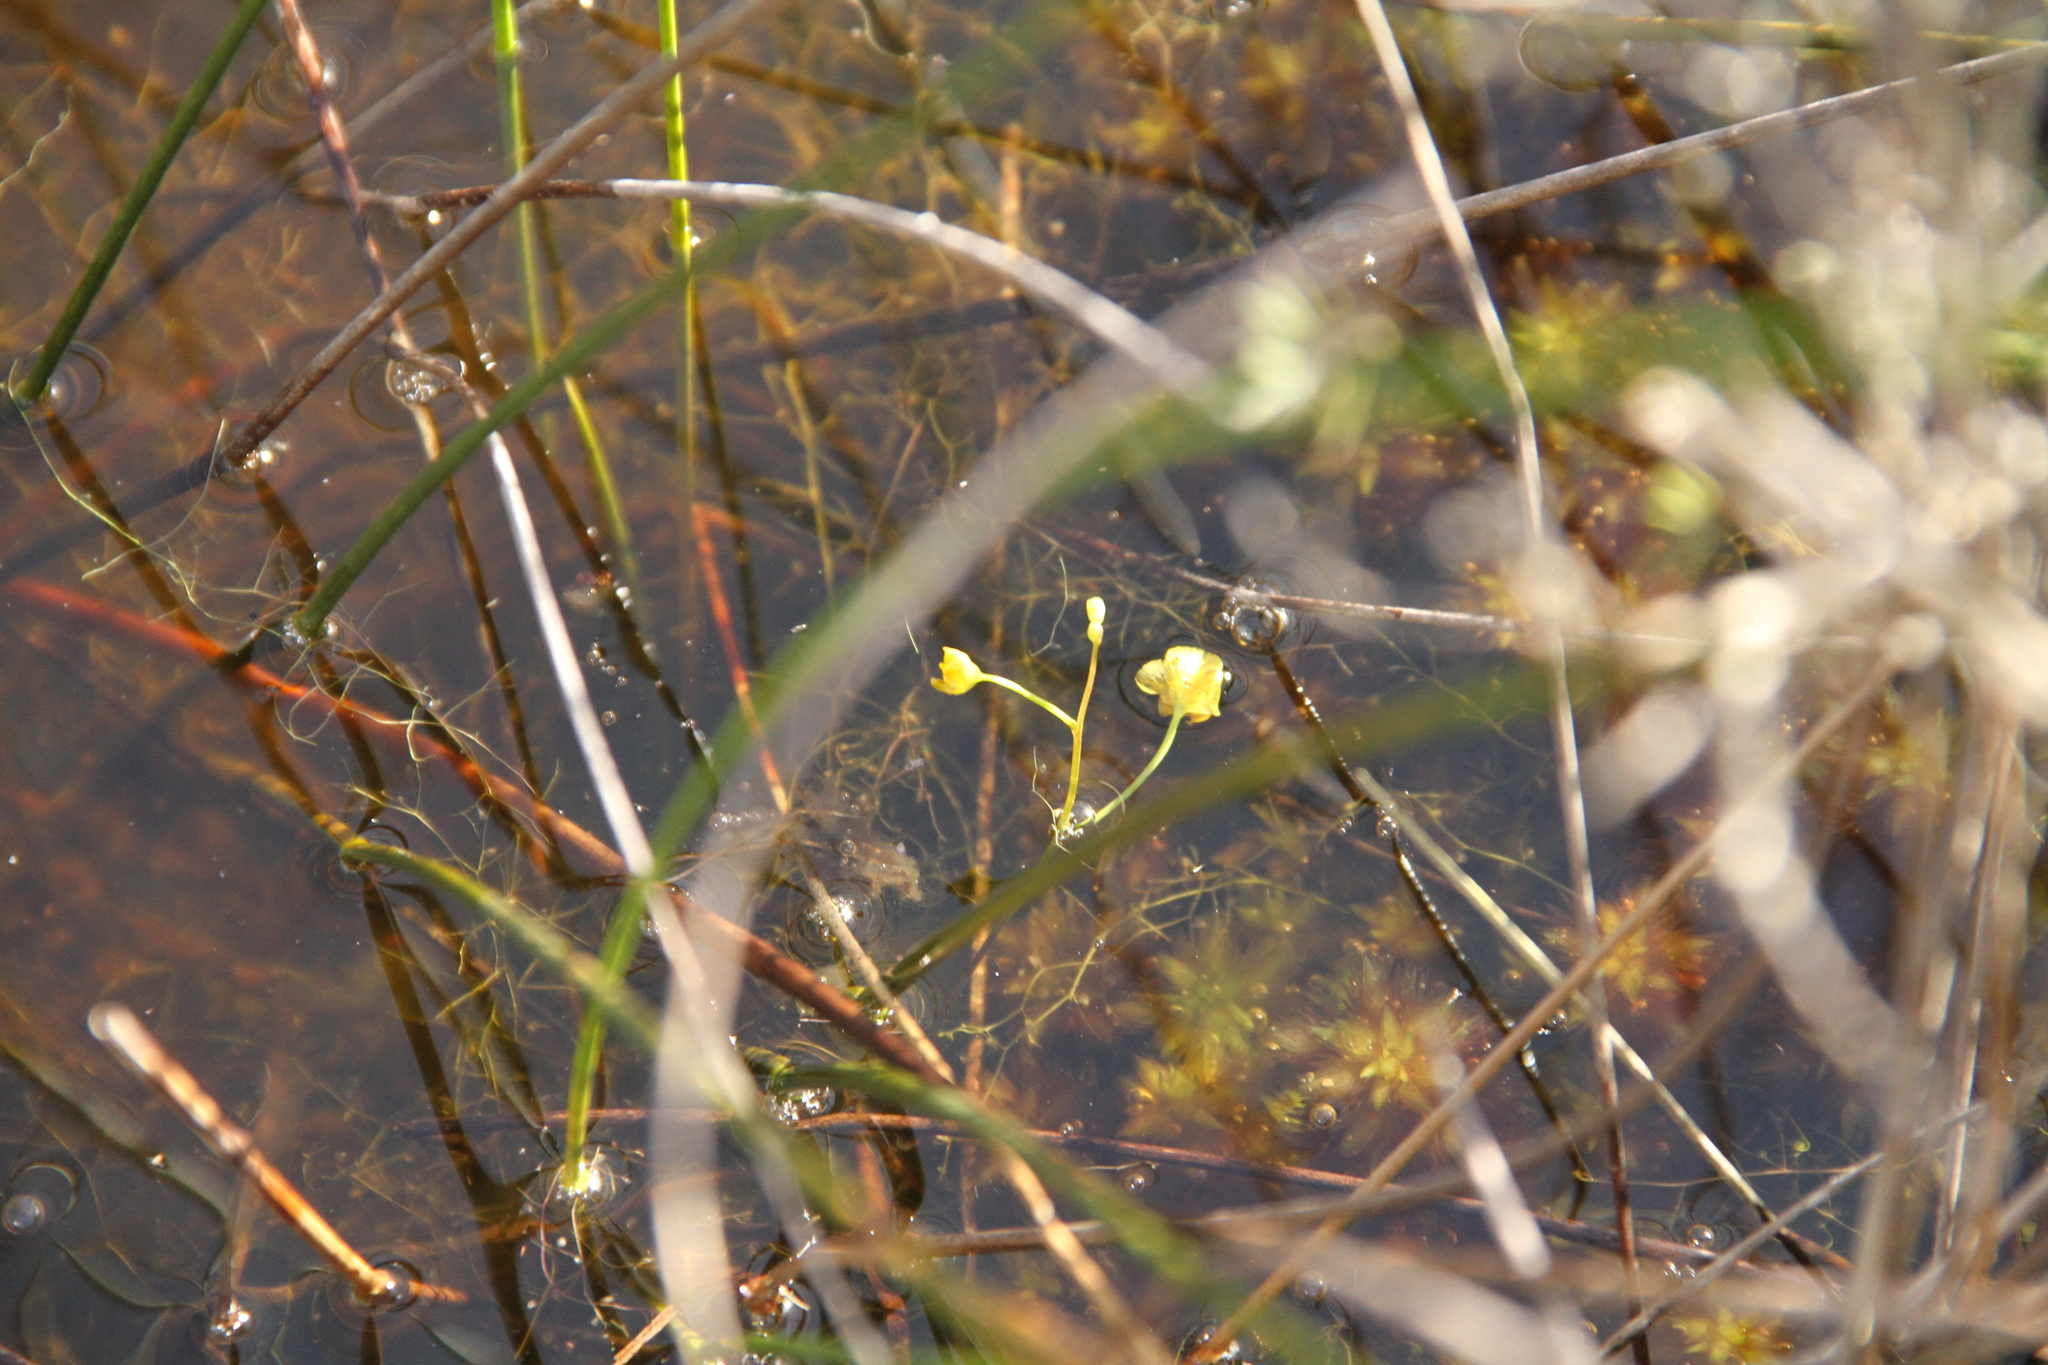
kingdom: Plantae
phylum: Tracheophyta
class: Magnoliopsida
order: Lamiales
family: Lentibulariaceae
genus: Utricularia
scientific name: Utricularia gibba
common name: Humped bladderwort
